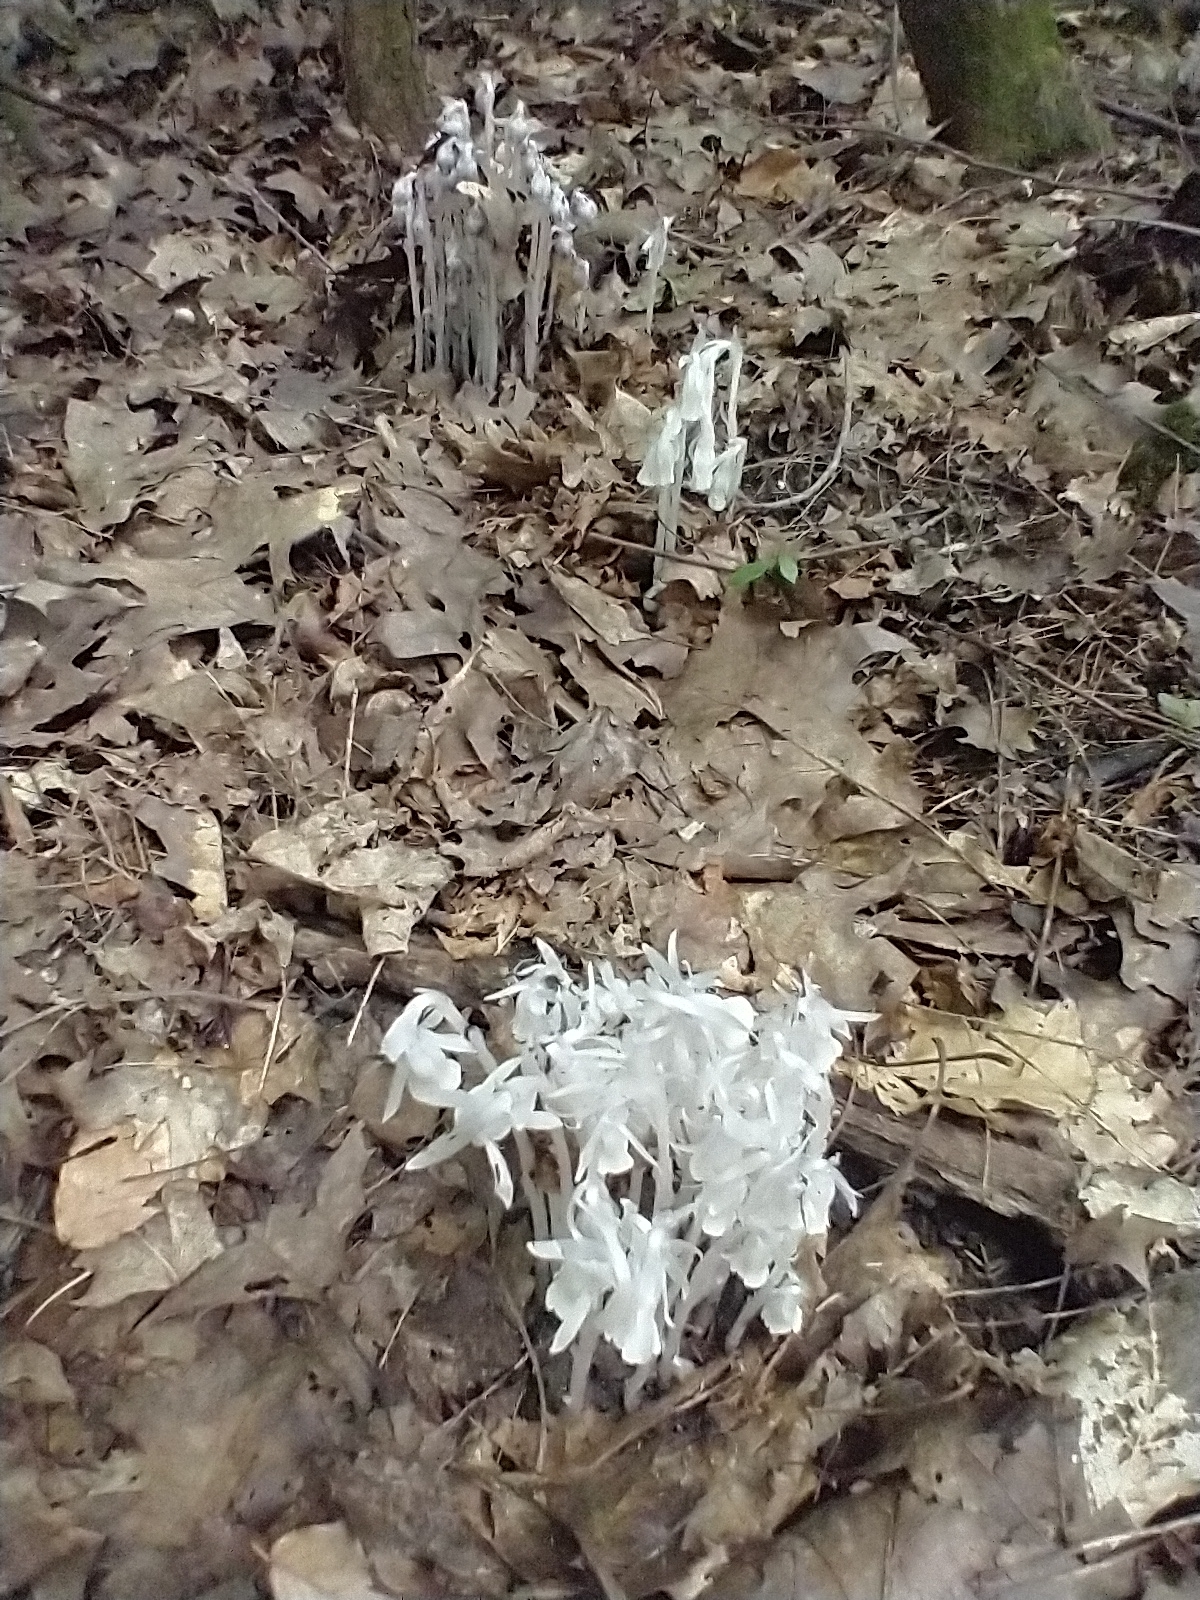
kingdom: Plantae
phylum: Tracheophyta
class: Magnoliopsida
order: Ericales
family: Ericaceae
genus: Monotropa
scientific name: Monotropa uniflora
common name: Convulsion root
